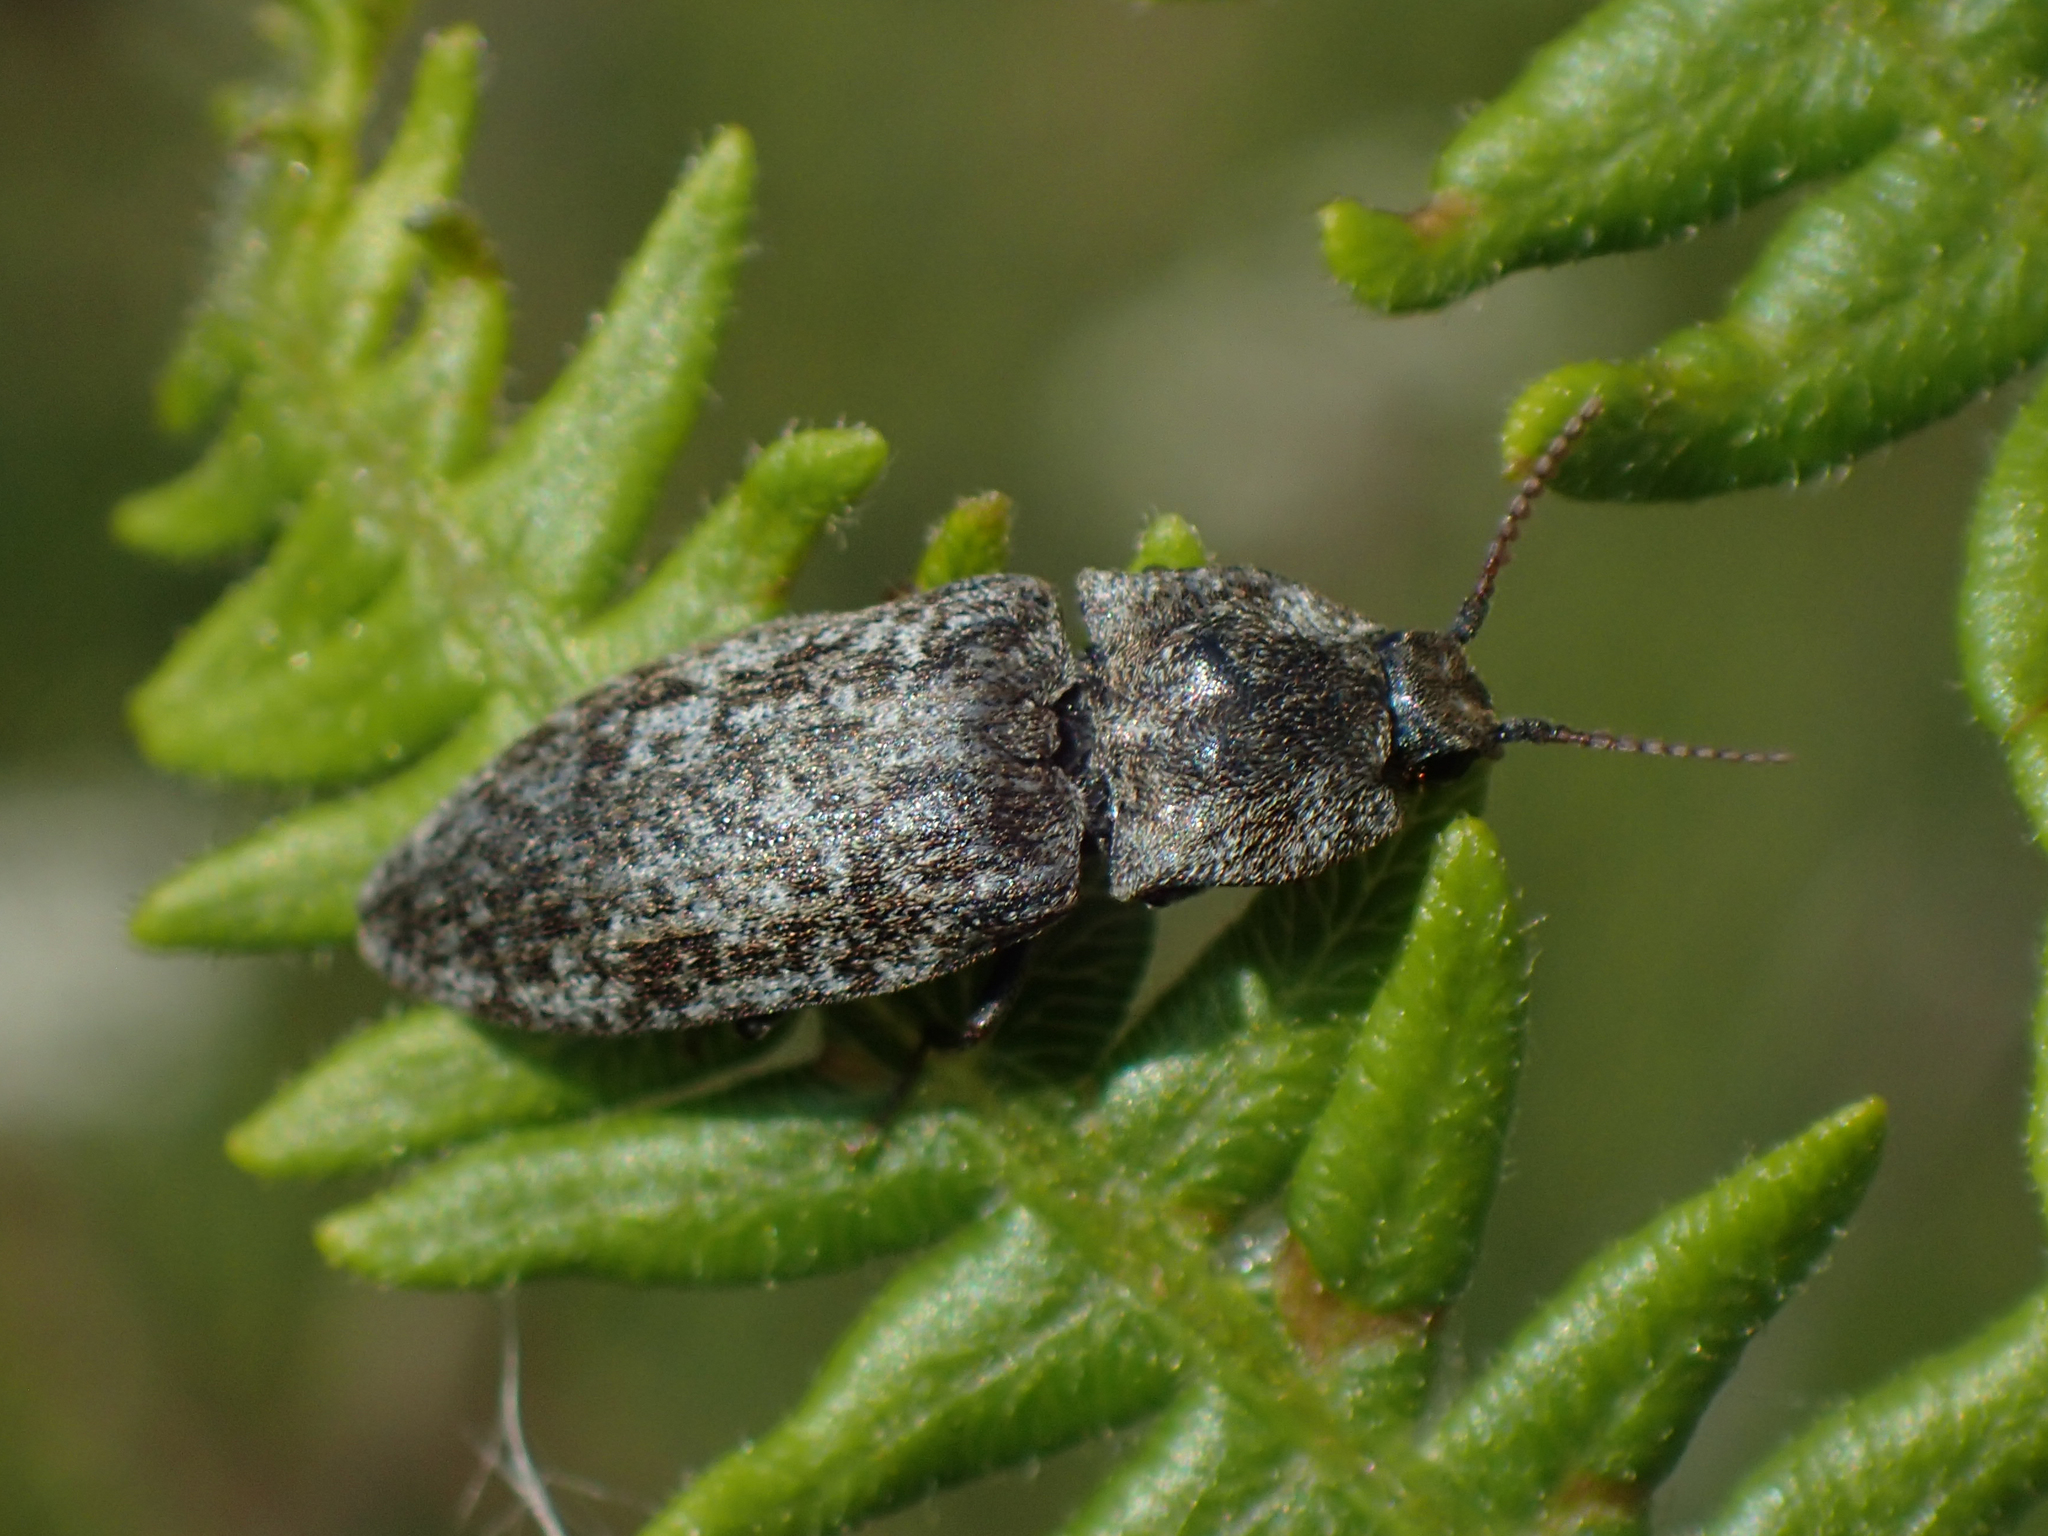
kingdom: Animalia
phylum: Arthropoda
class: Insecta
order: Coleoptera
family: Elateridae
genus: Agrypnus
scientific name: Agrypnus murinus
